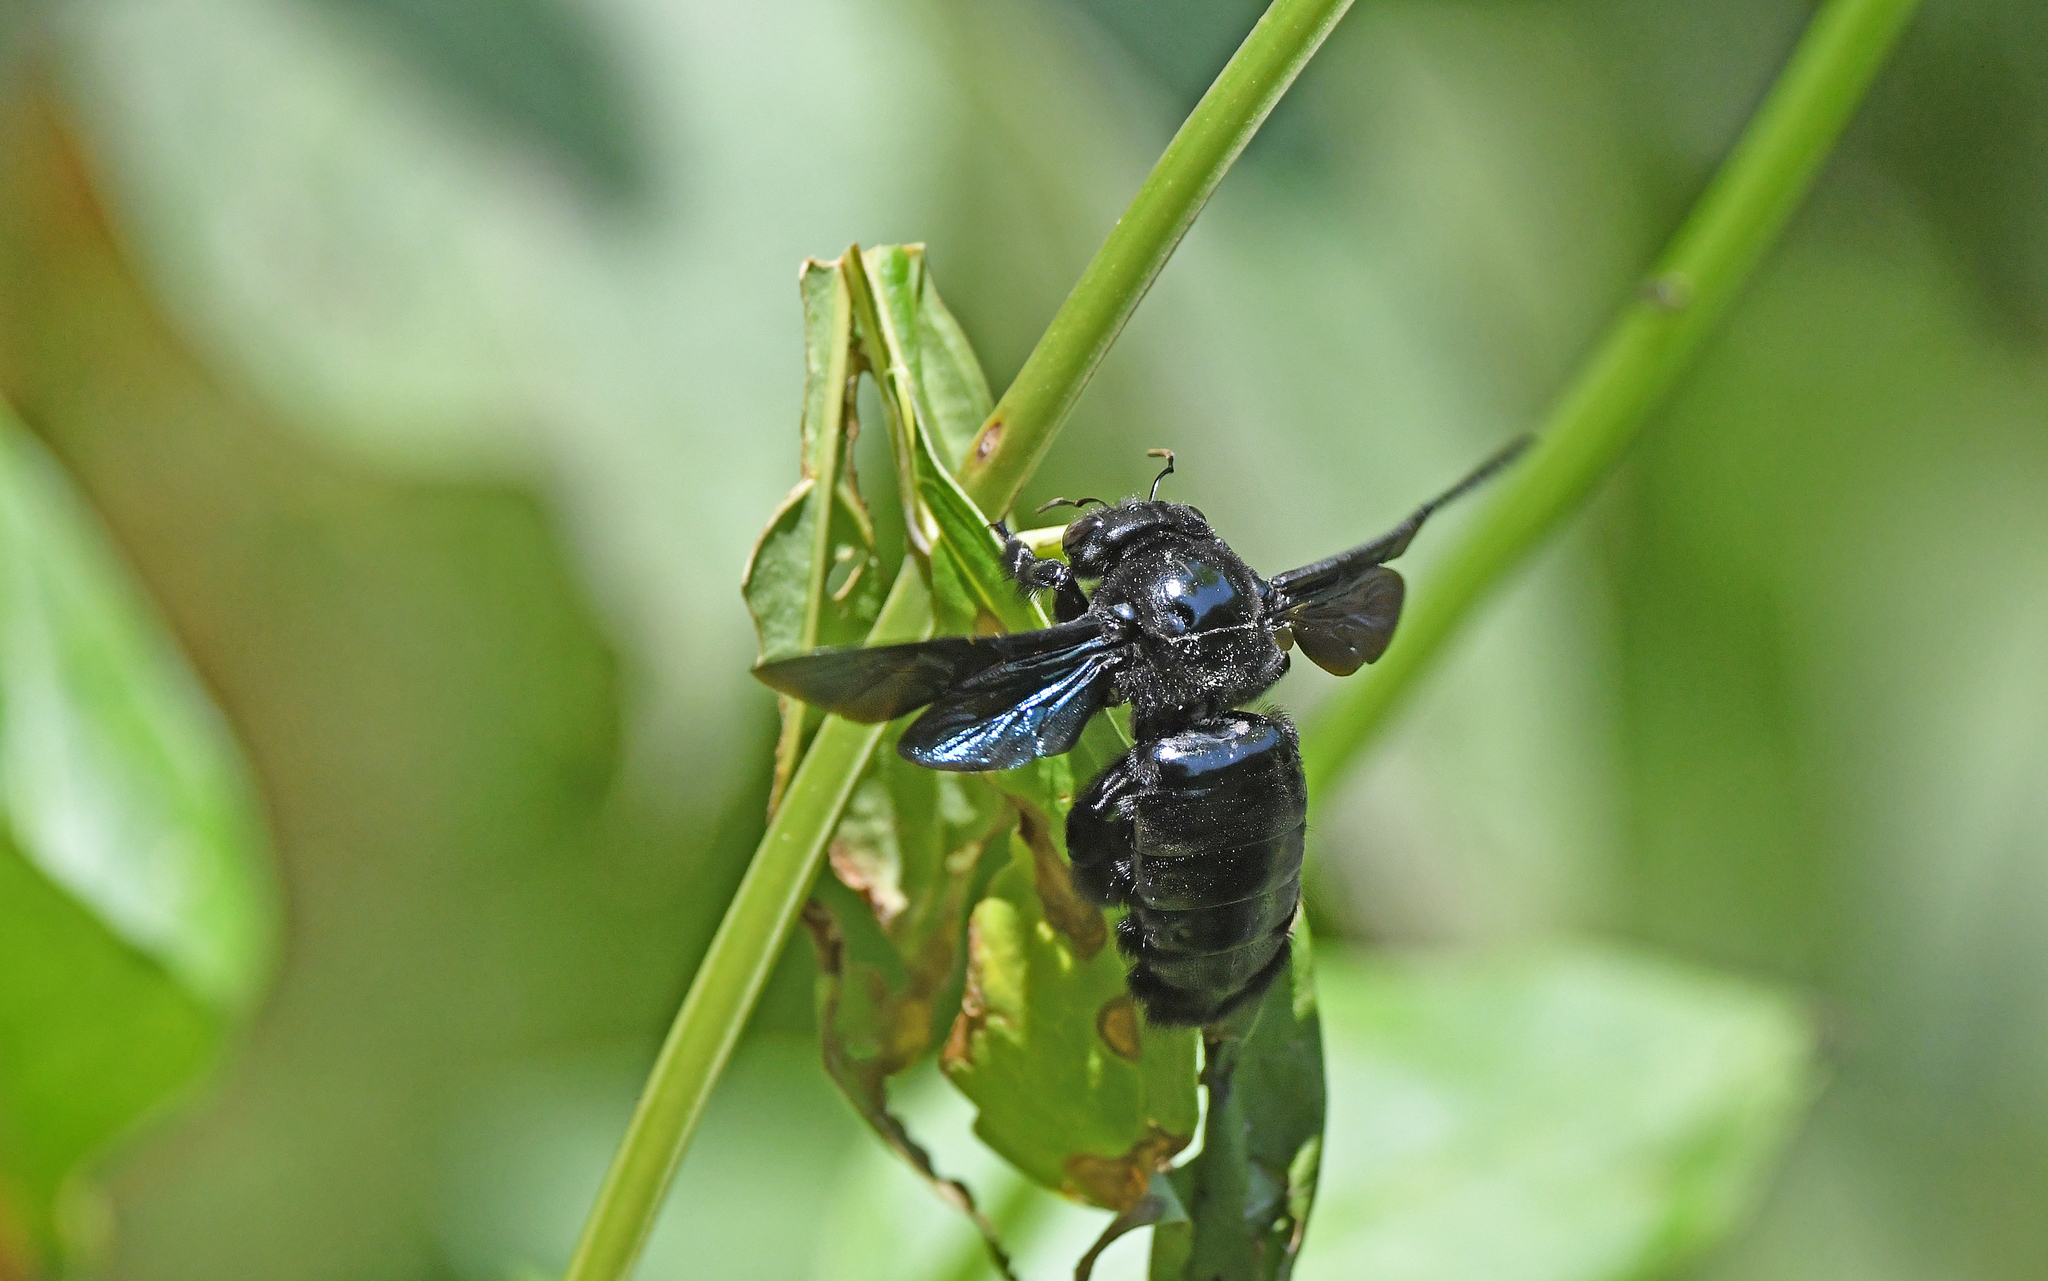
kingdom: Animalia
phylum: Arthropoda
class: Insecta
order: Hymenoptera
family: Apidae
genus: Xylocopa
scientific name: Xylocopa frontalis
